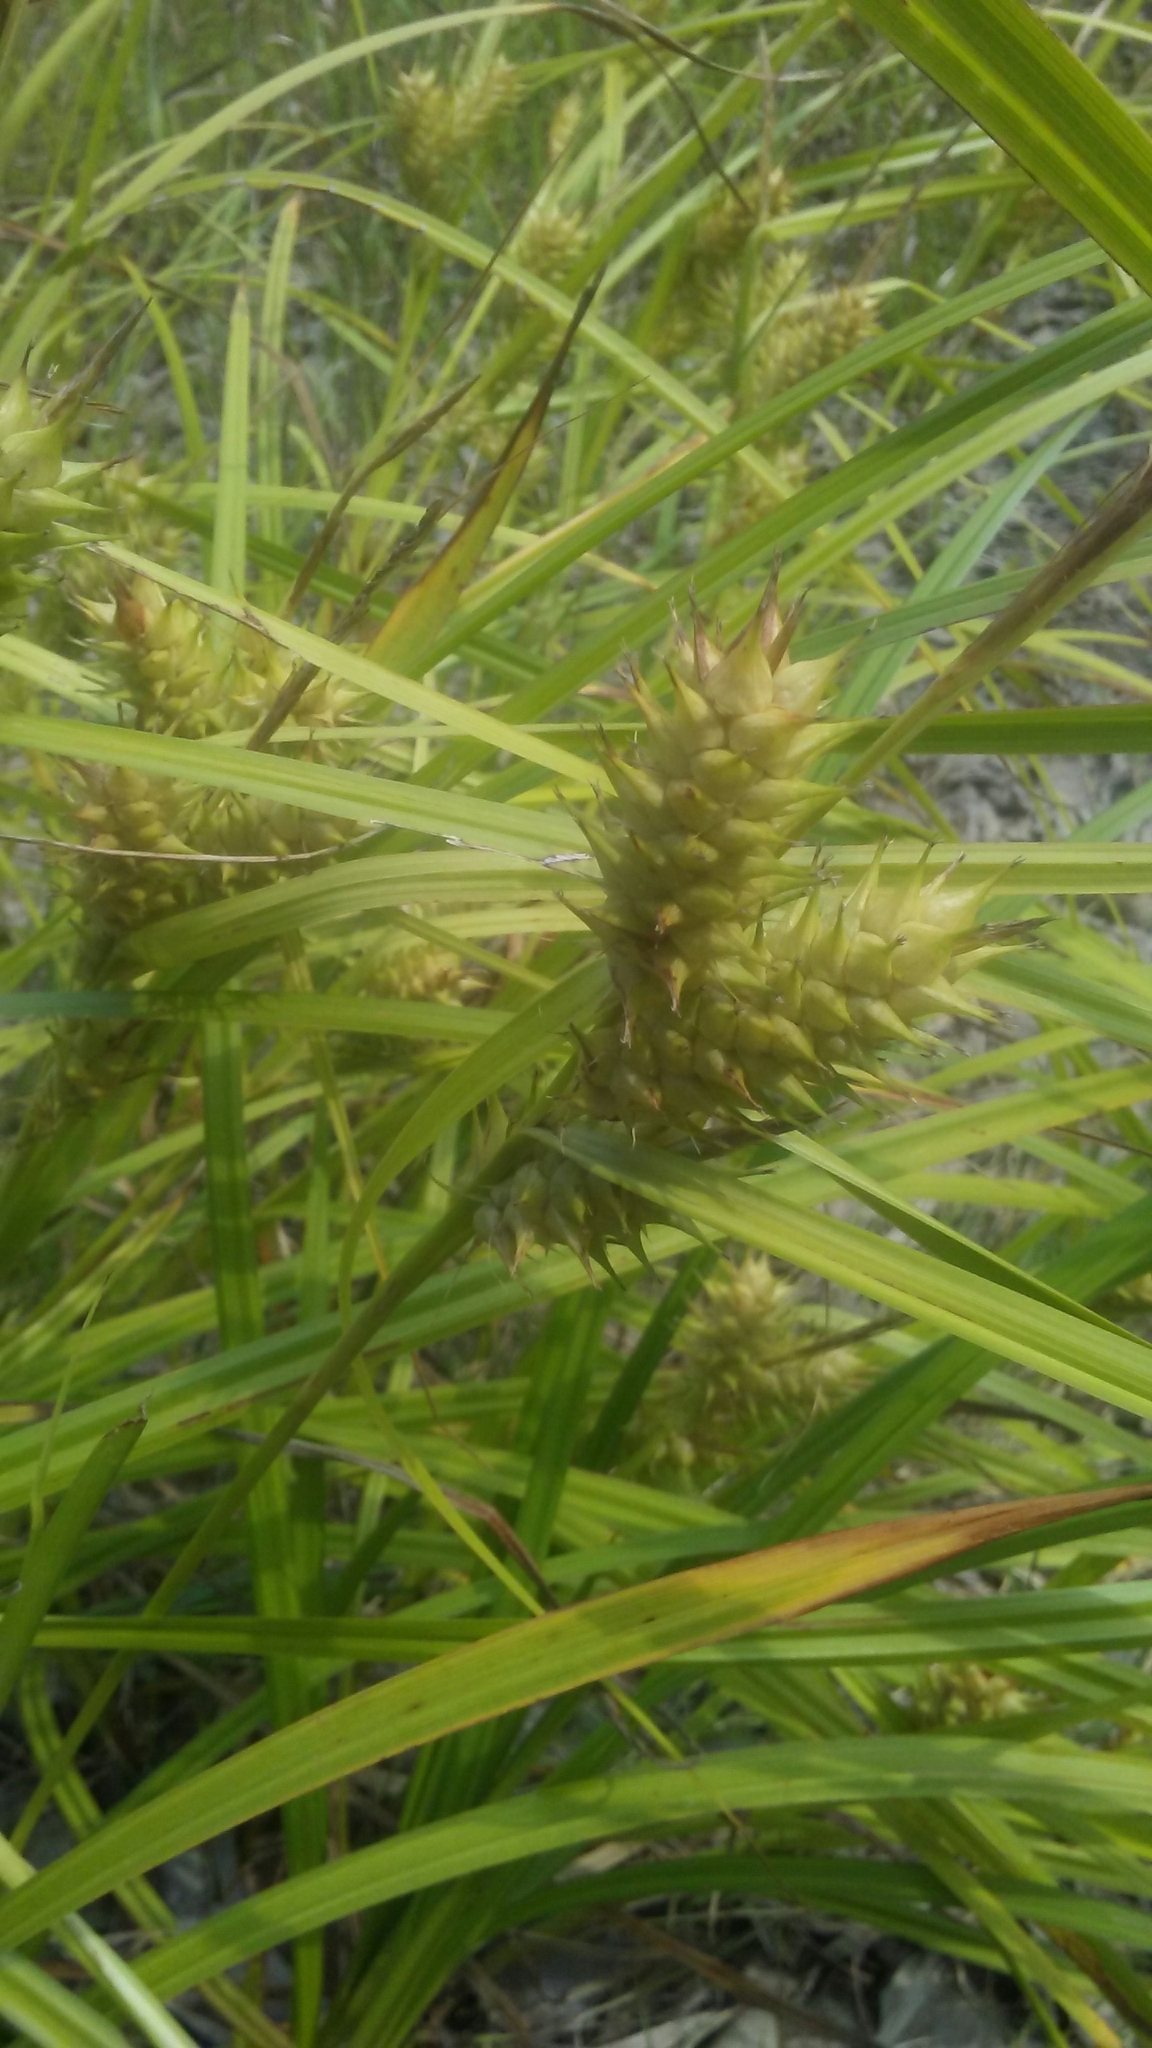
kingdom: Plantae
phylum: Tracheophyta
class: Liliopsida
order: Poales
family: Cyperaceae
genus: Carex
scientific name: Carex lupulina
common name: Hop sedge
